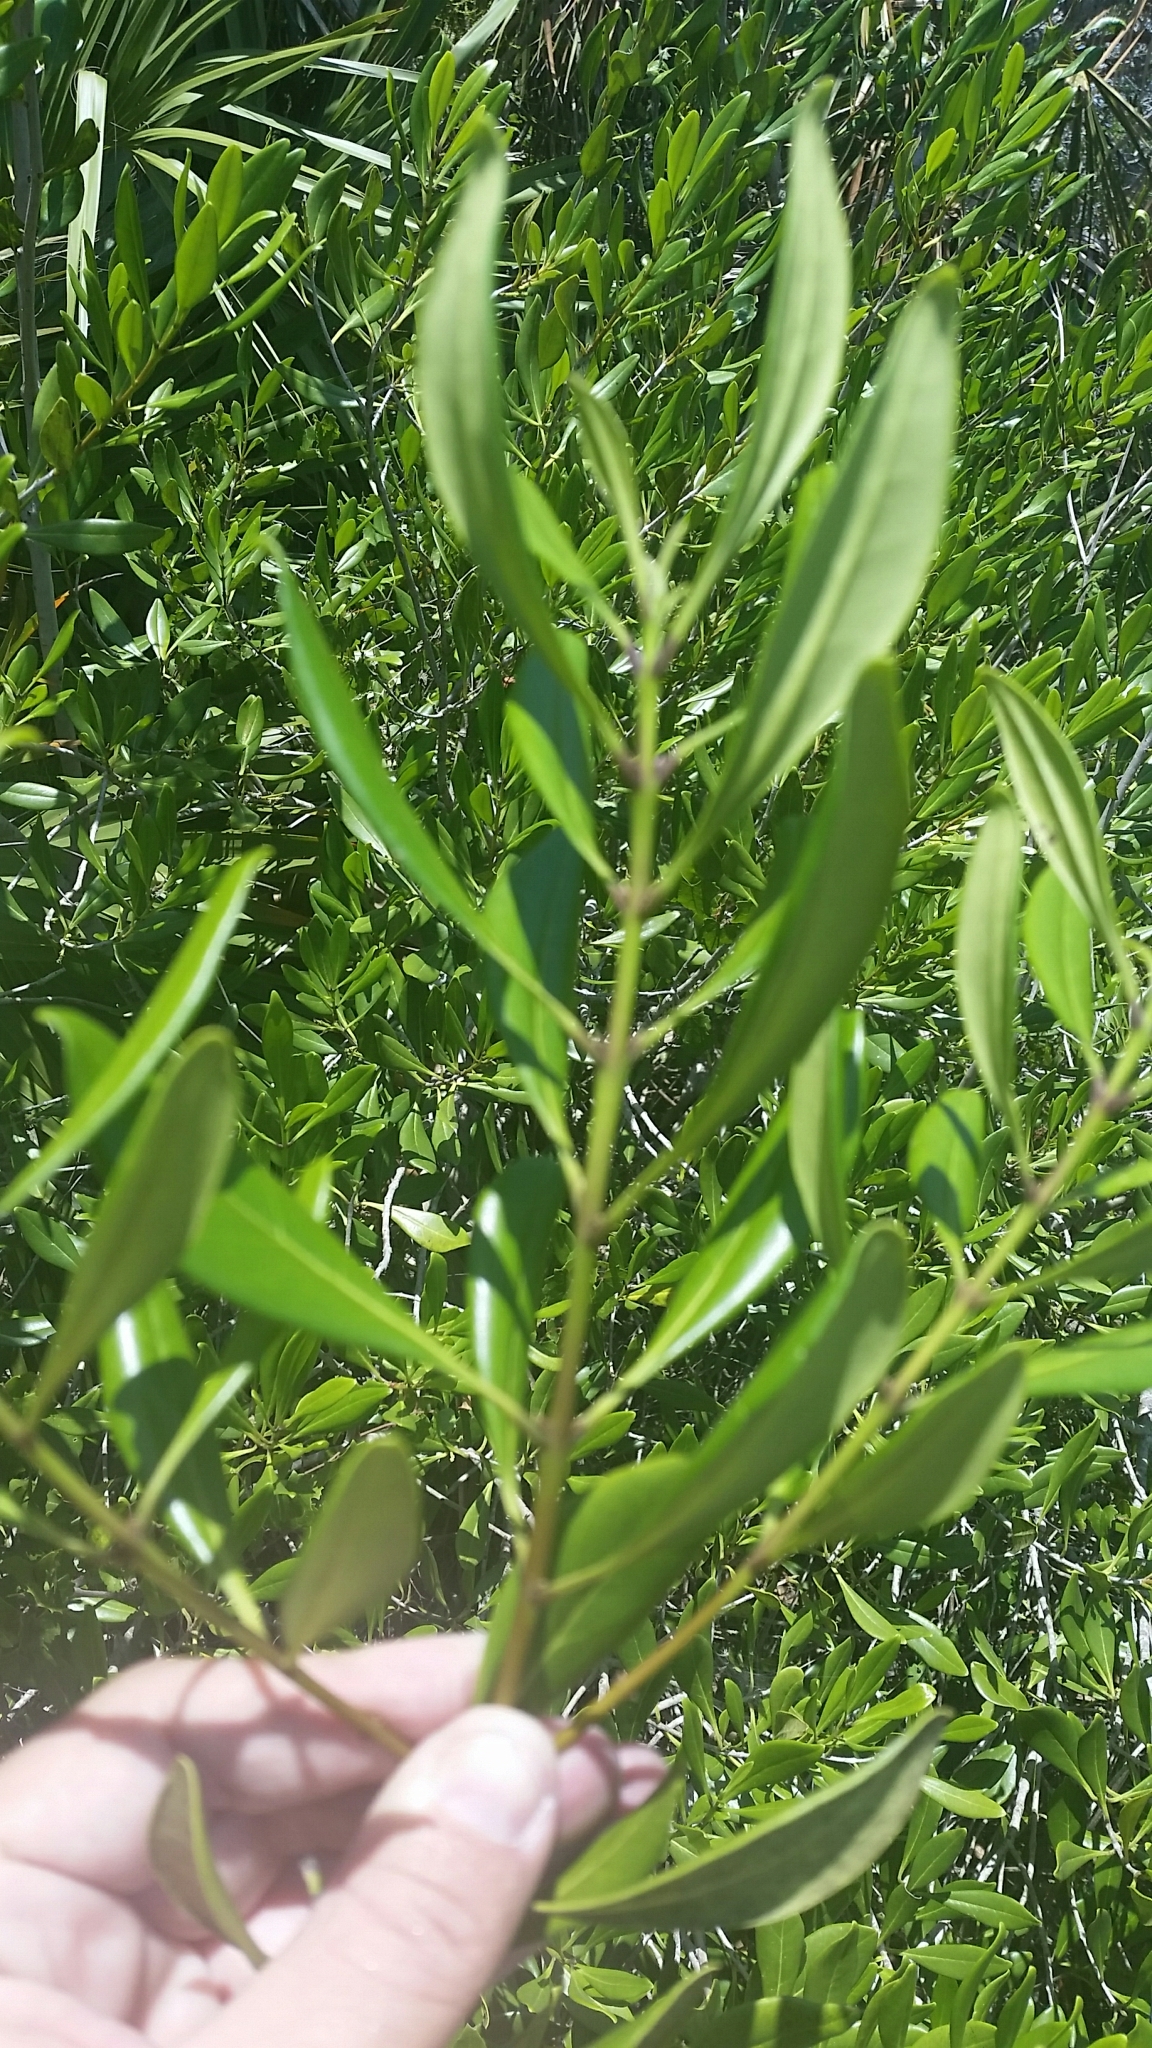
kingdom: Plantae
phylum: Tracheophyta
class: Magnoliopsida
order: Lamiales
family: Oleaceae
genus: Cartrema
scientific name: Cartrema floridana
